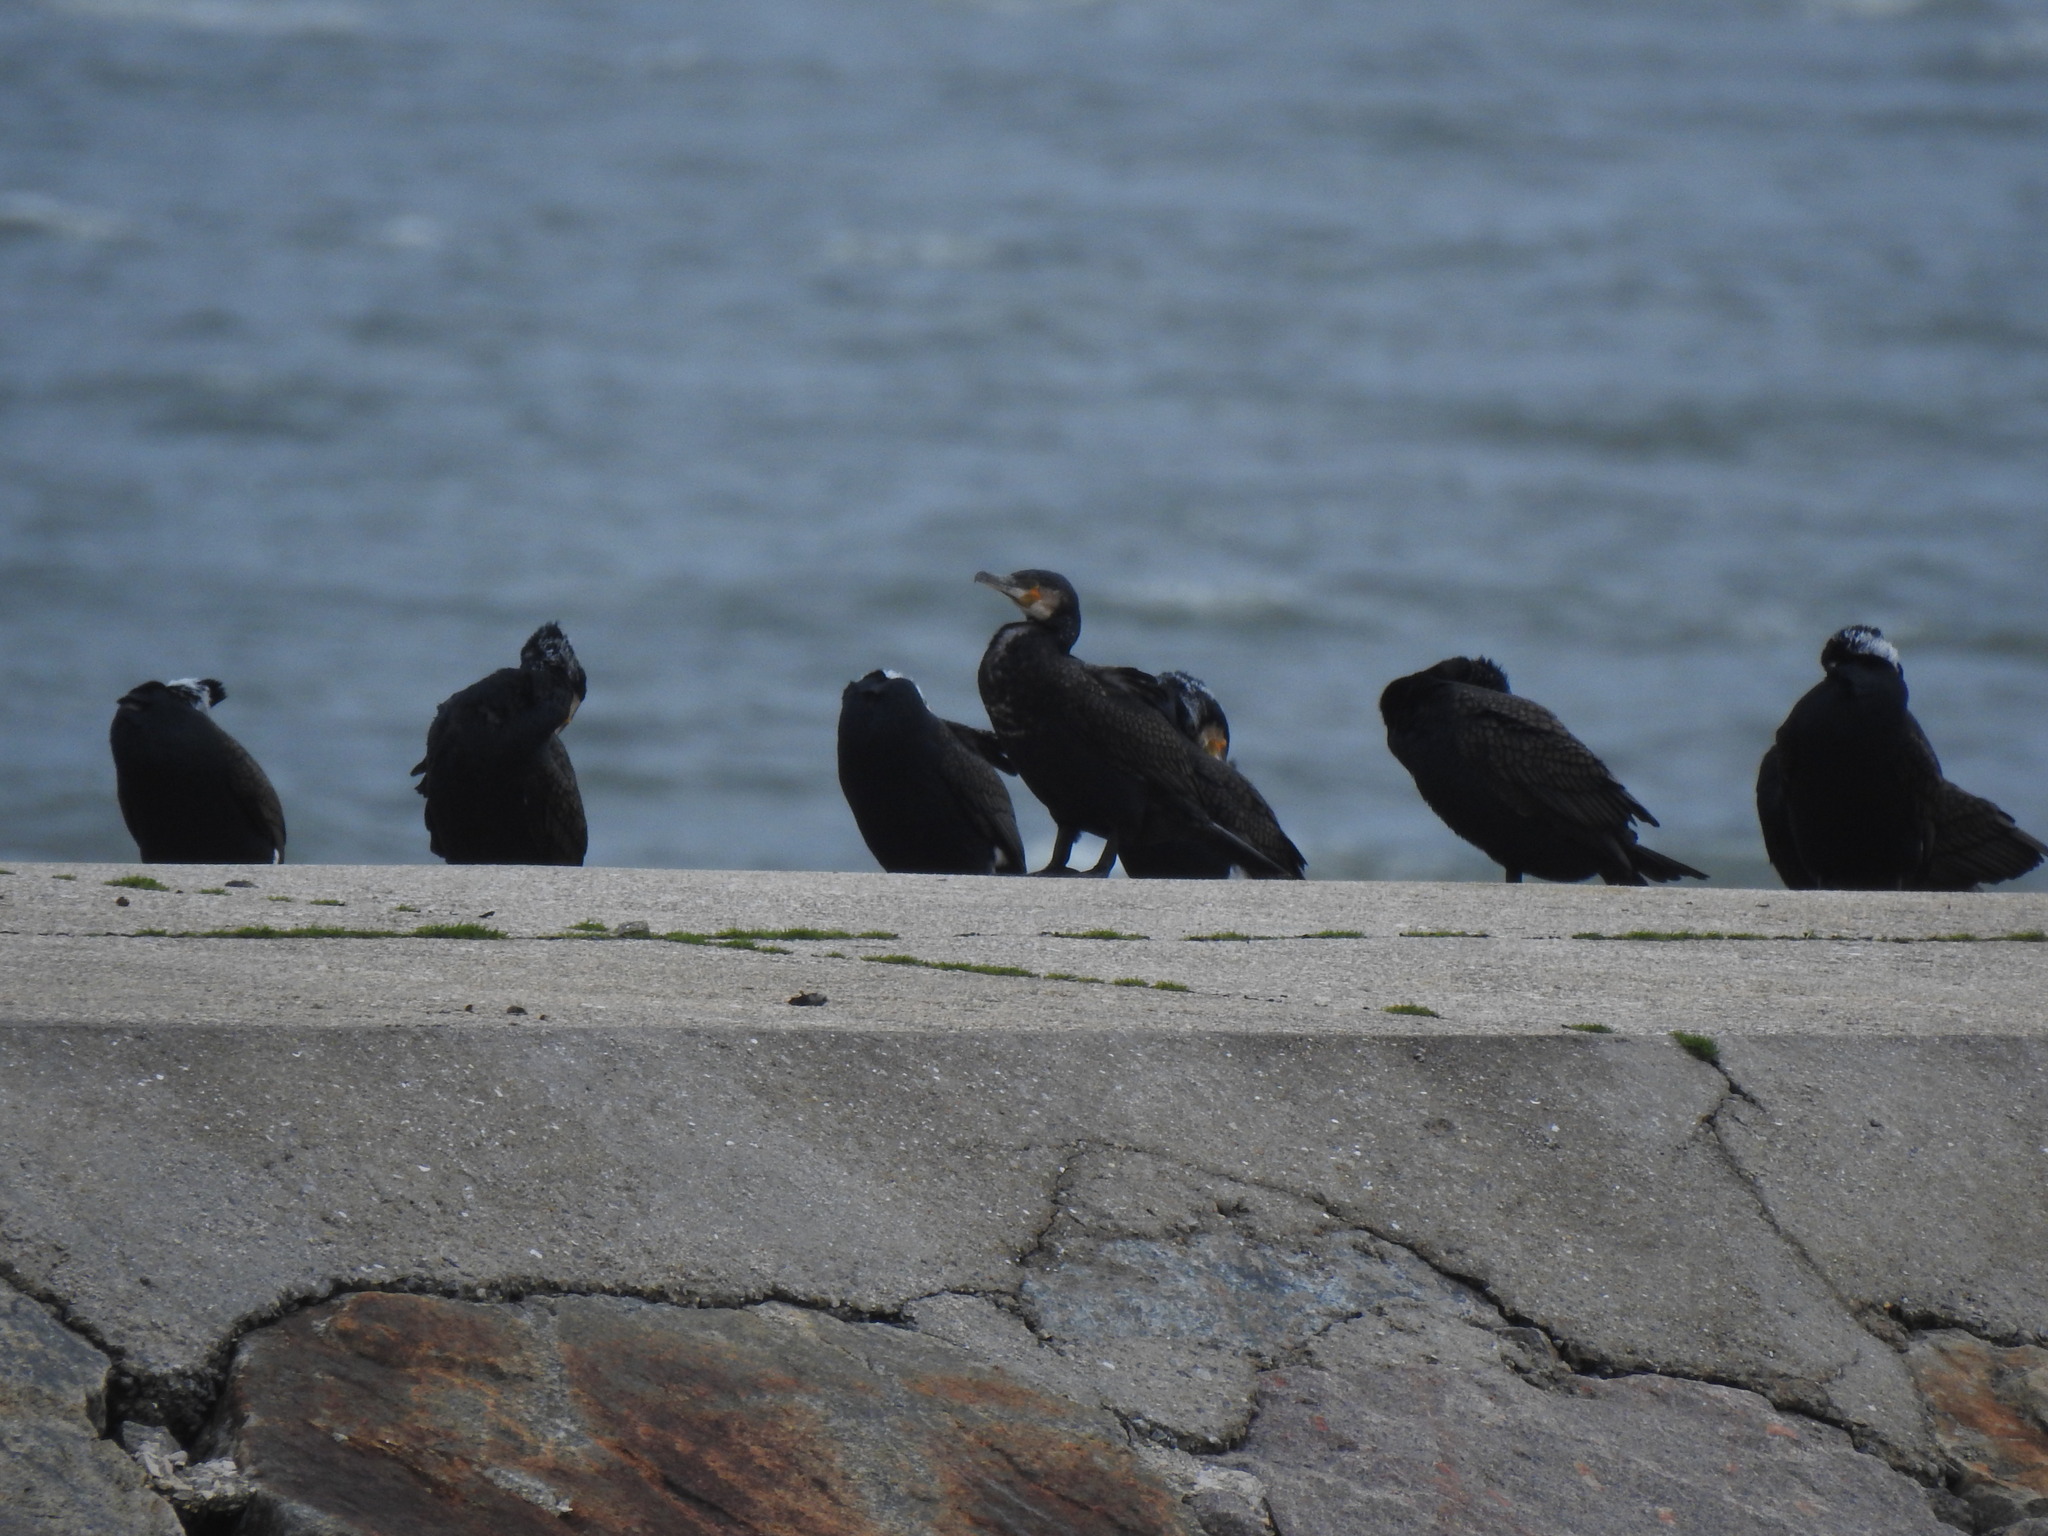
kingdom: Animalia
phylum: Chordata
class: Aves
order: Suliformes
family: Phalacrocoracidae
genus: Phalacrocorax
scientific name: Phalacrocorax carbo
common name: Great cormorant
